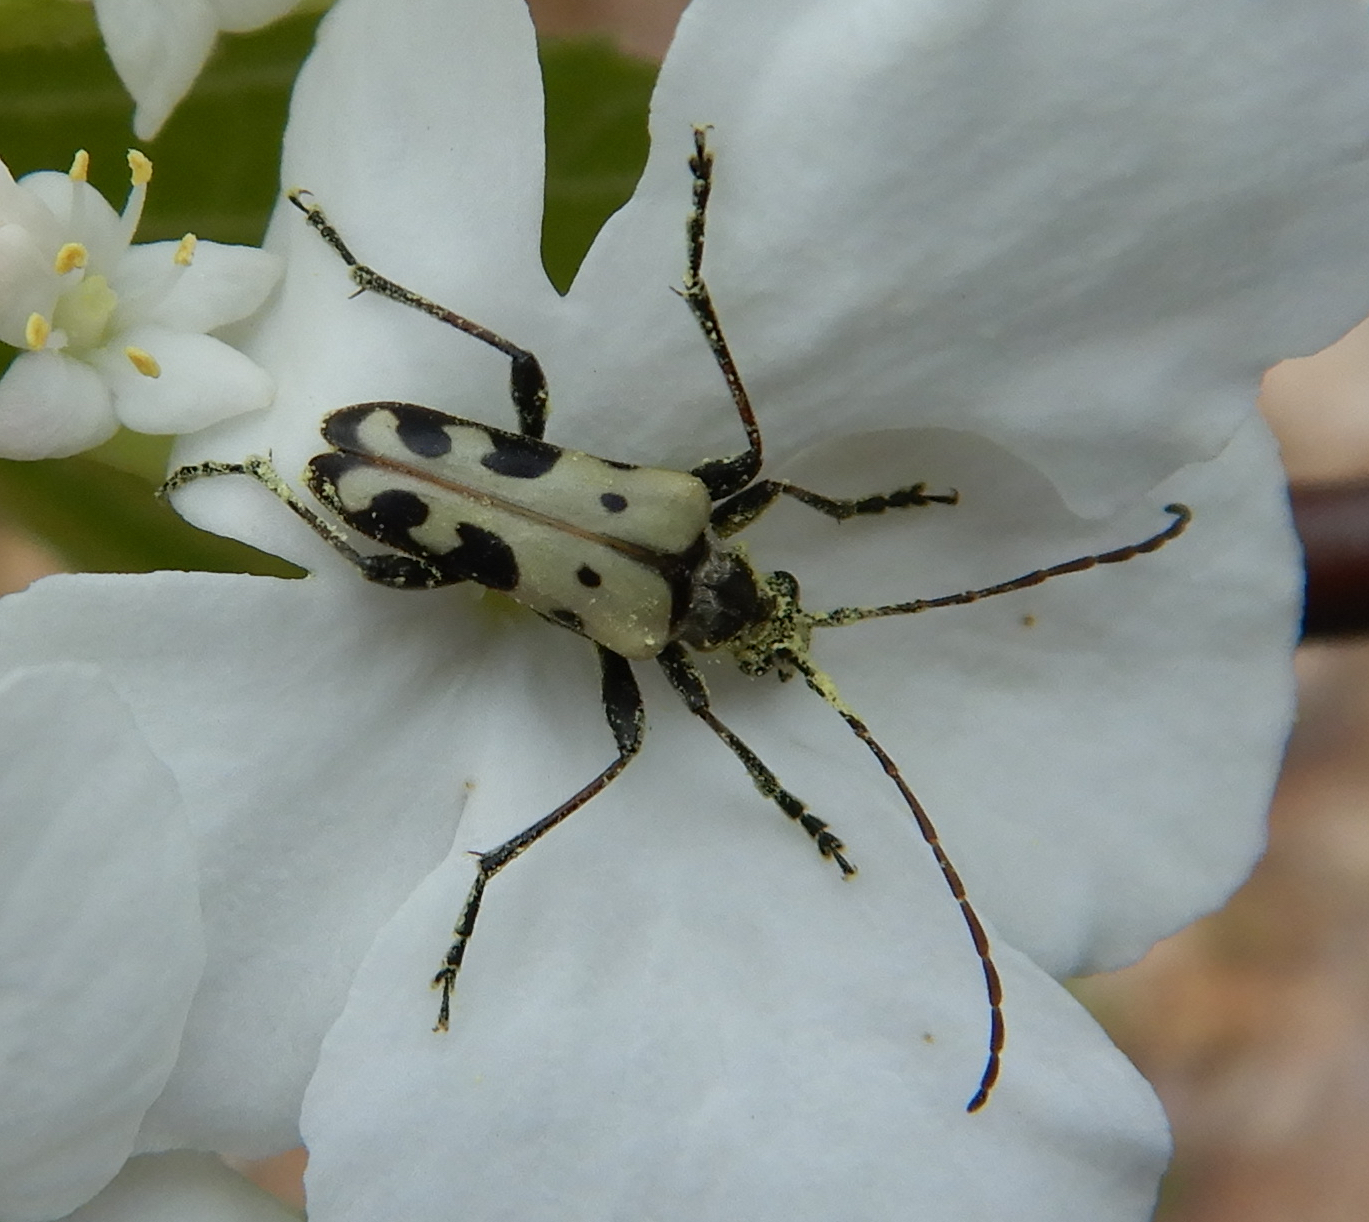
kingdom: Animalia
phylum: Arthropoda
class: Insecta
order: Coleoptera
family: Cerambycidae
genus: Evodinus
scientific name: Evodinus monticola
